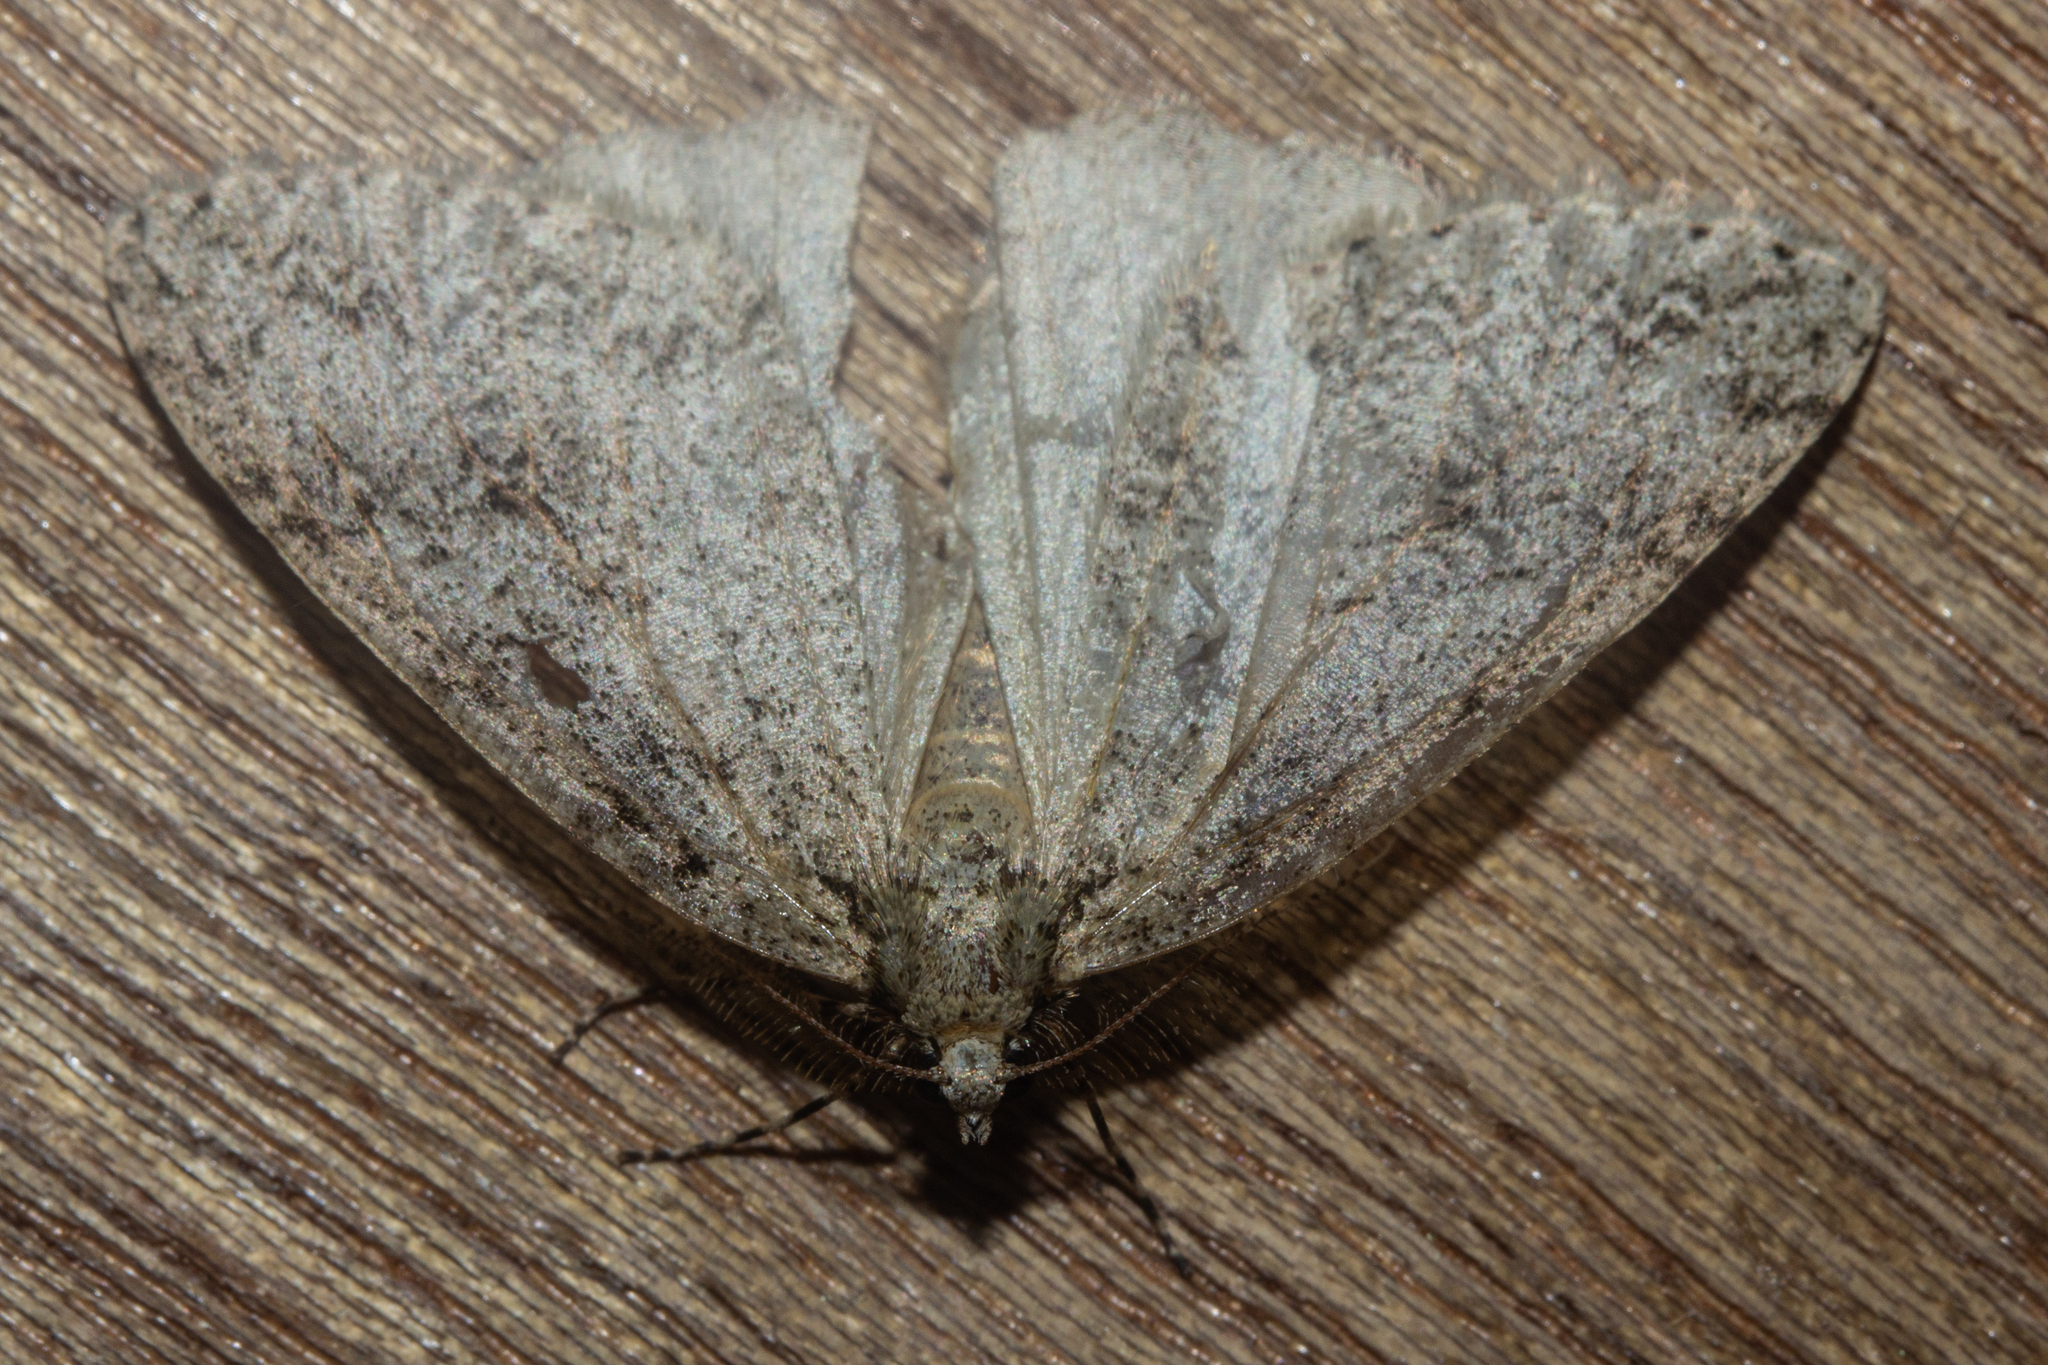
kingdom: Animalia
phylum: Arthropoda
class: Insecta
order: Lepidoptera
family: Geometridae
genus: Pseudocoremia
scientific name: Pseudocoremia rudisata
